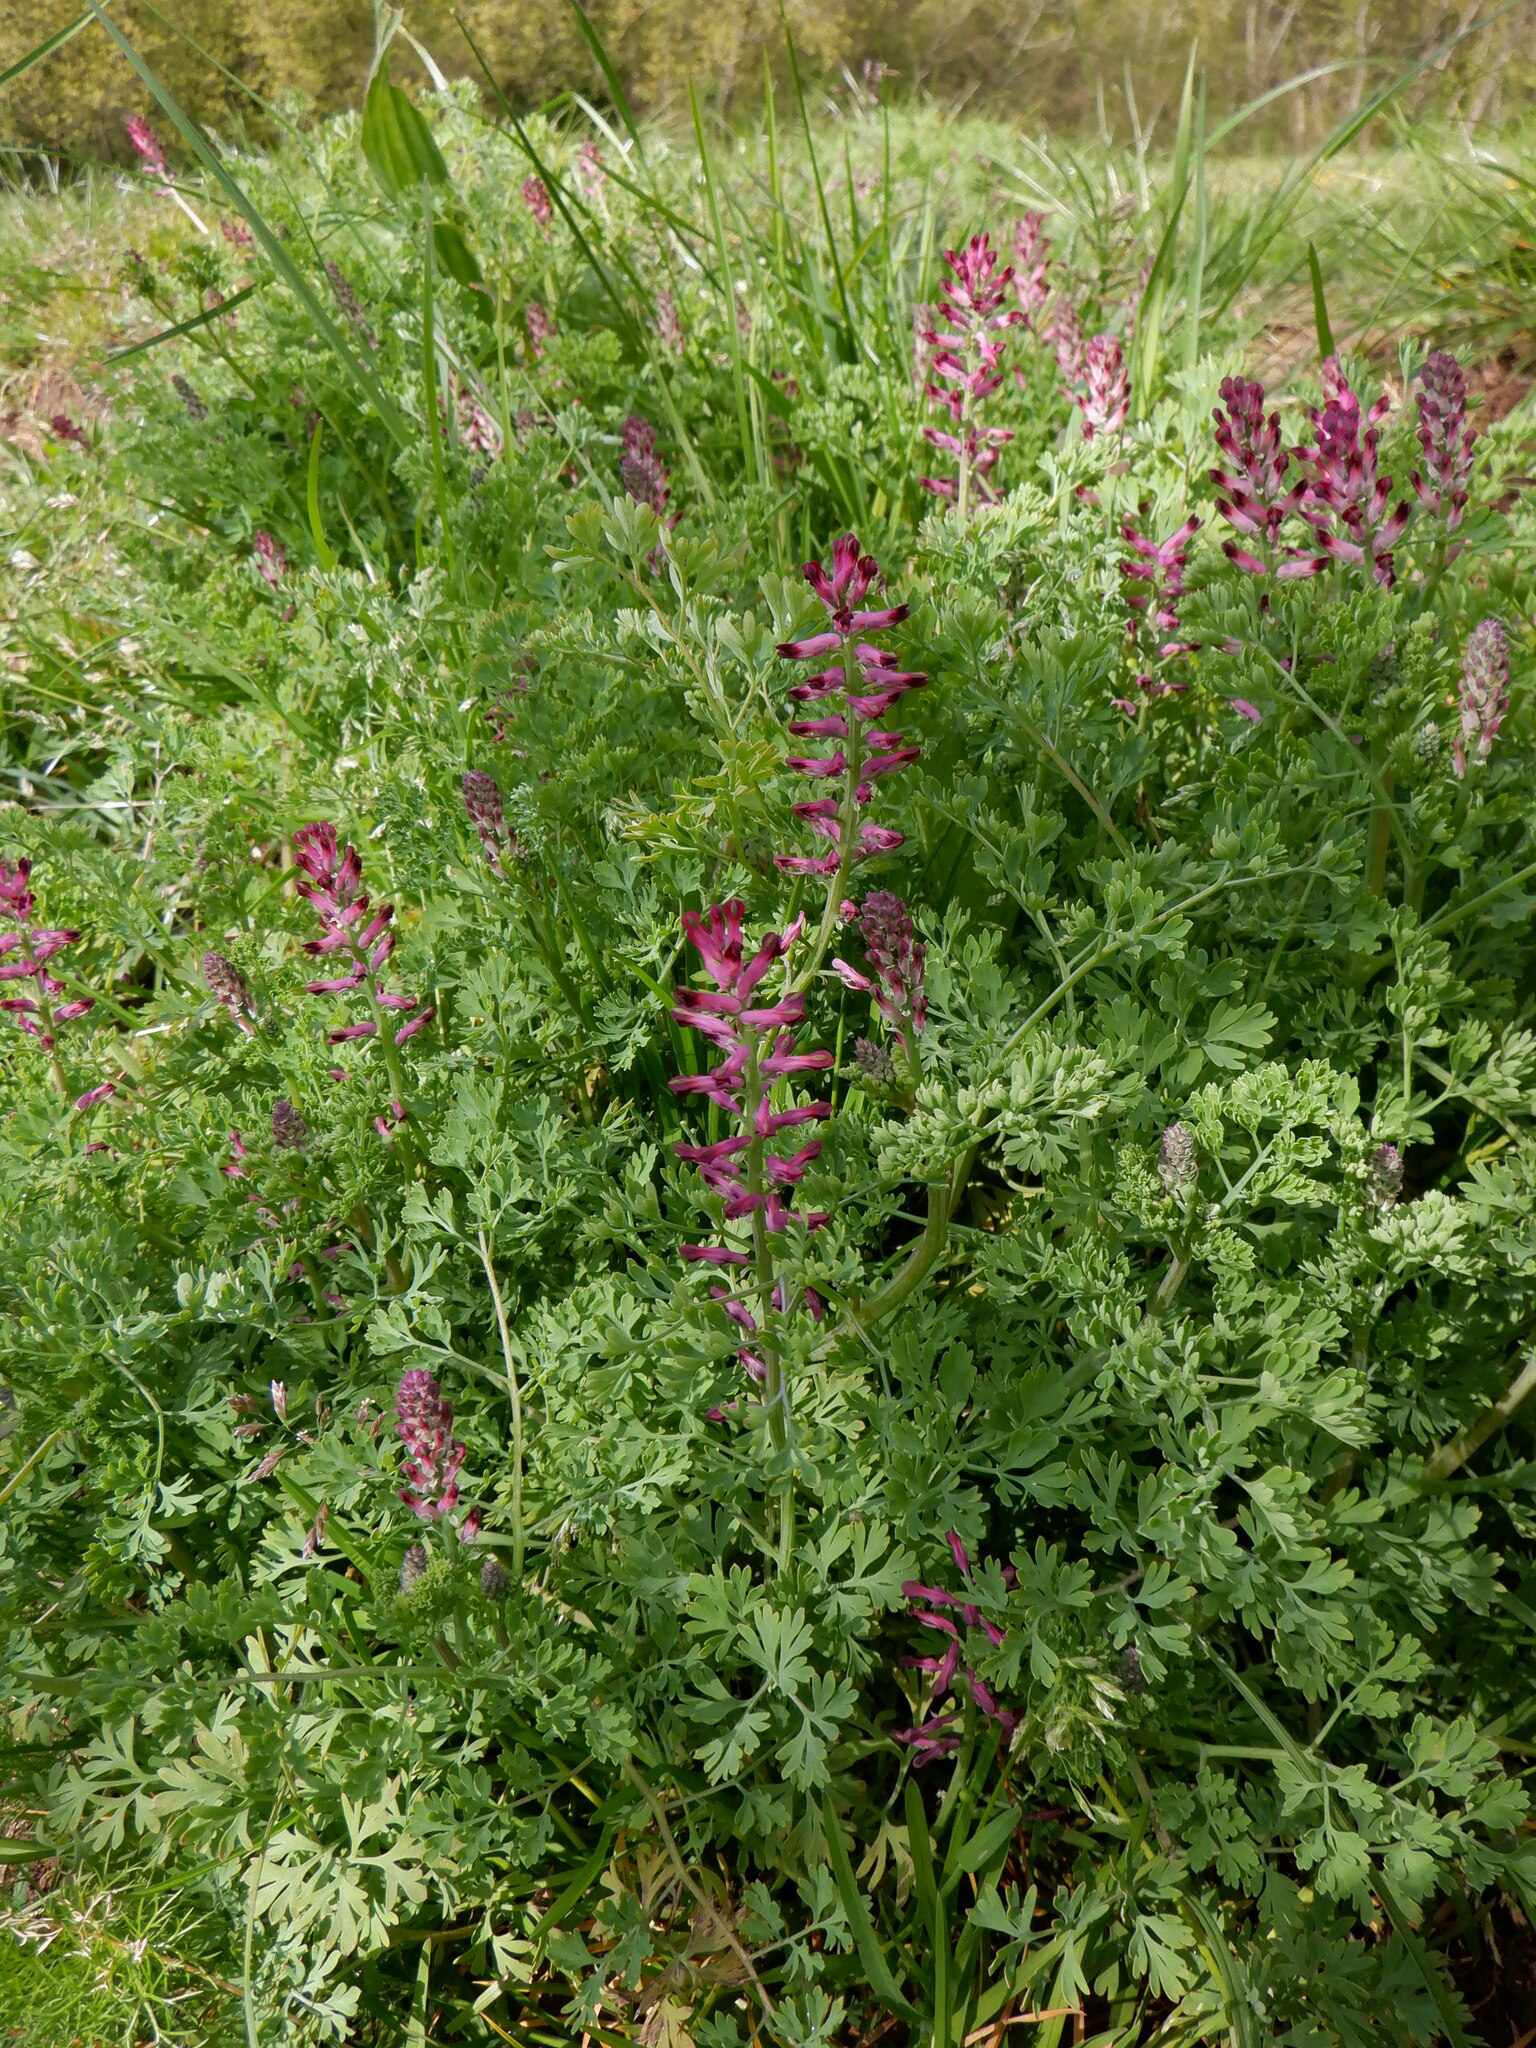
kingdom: Plantae
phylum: Tracheophyta
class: Magnoliopsida
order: Ranunculales
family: Papaveraceae
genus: Fumaria
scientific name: Fumaria officinalis
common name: Common fumitory
